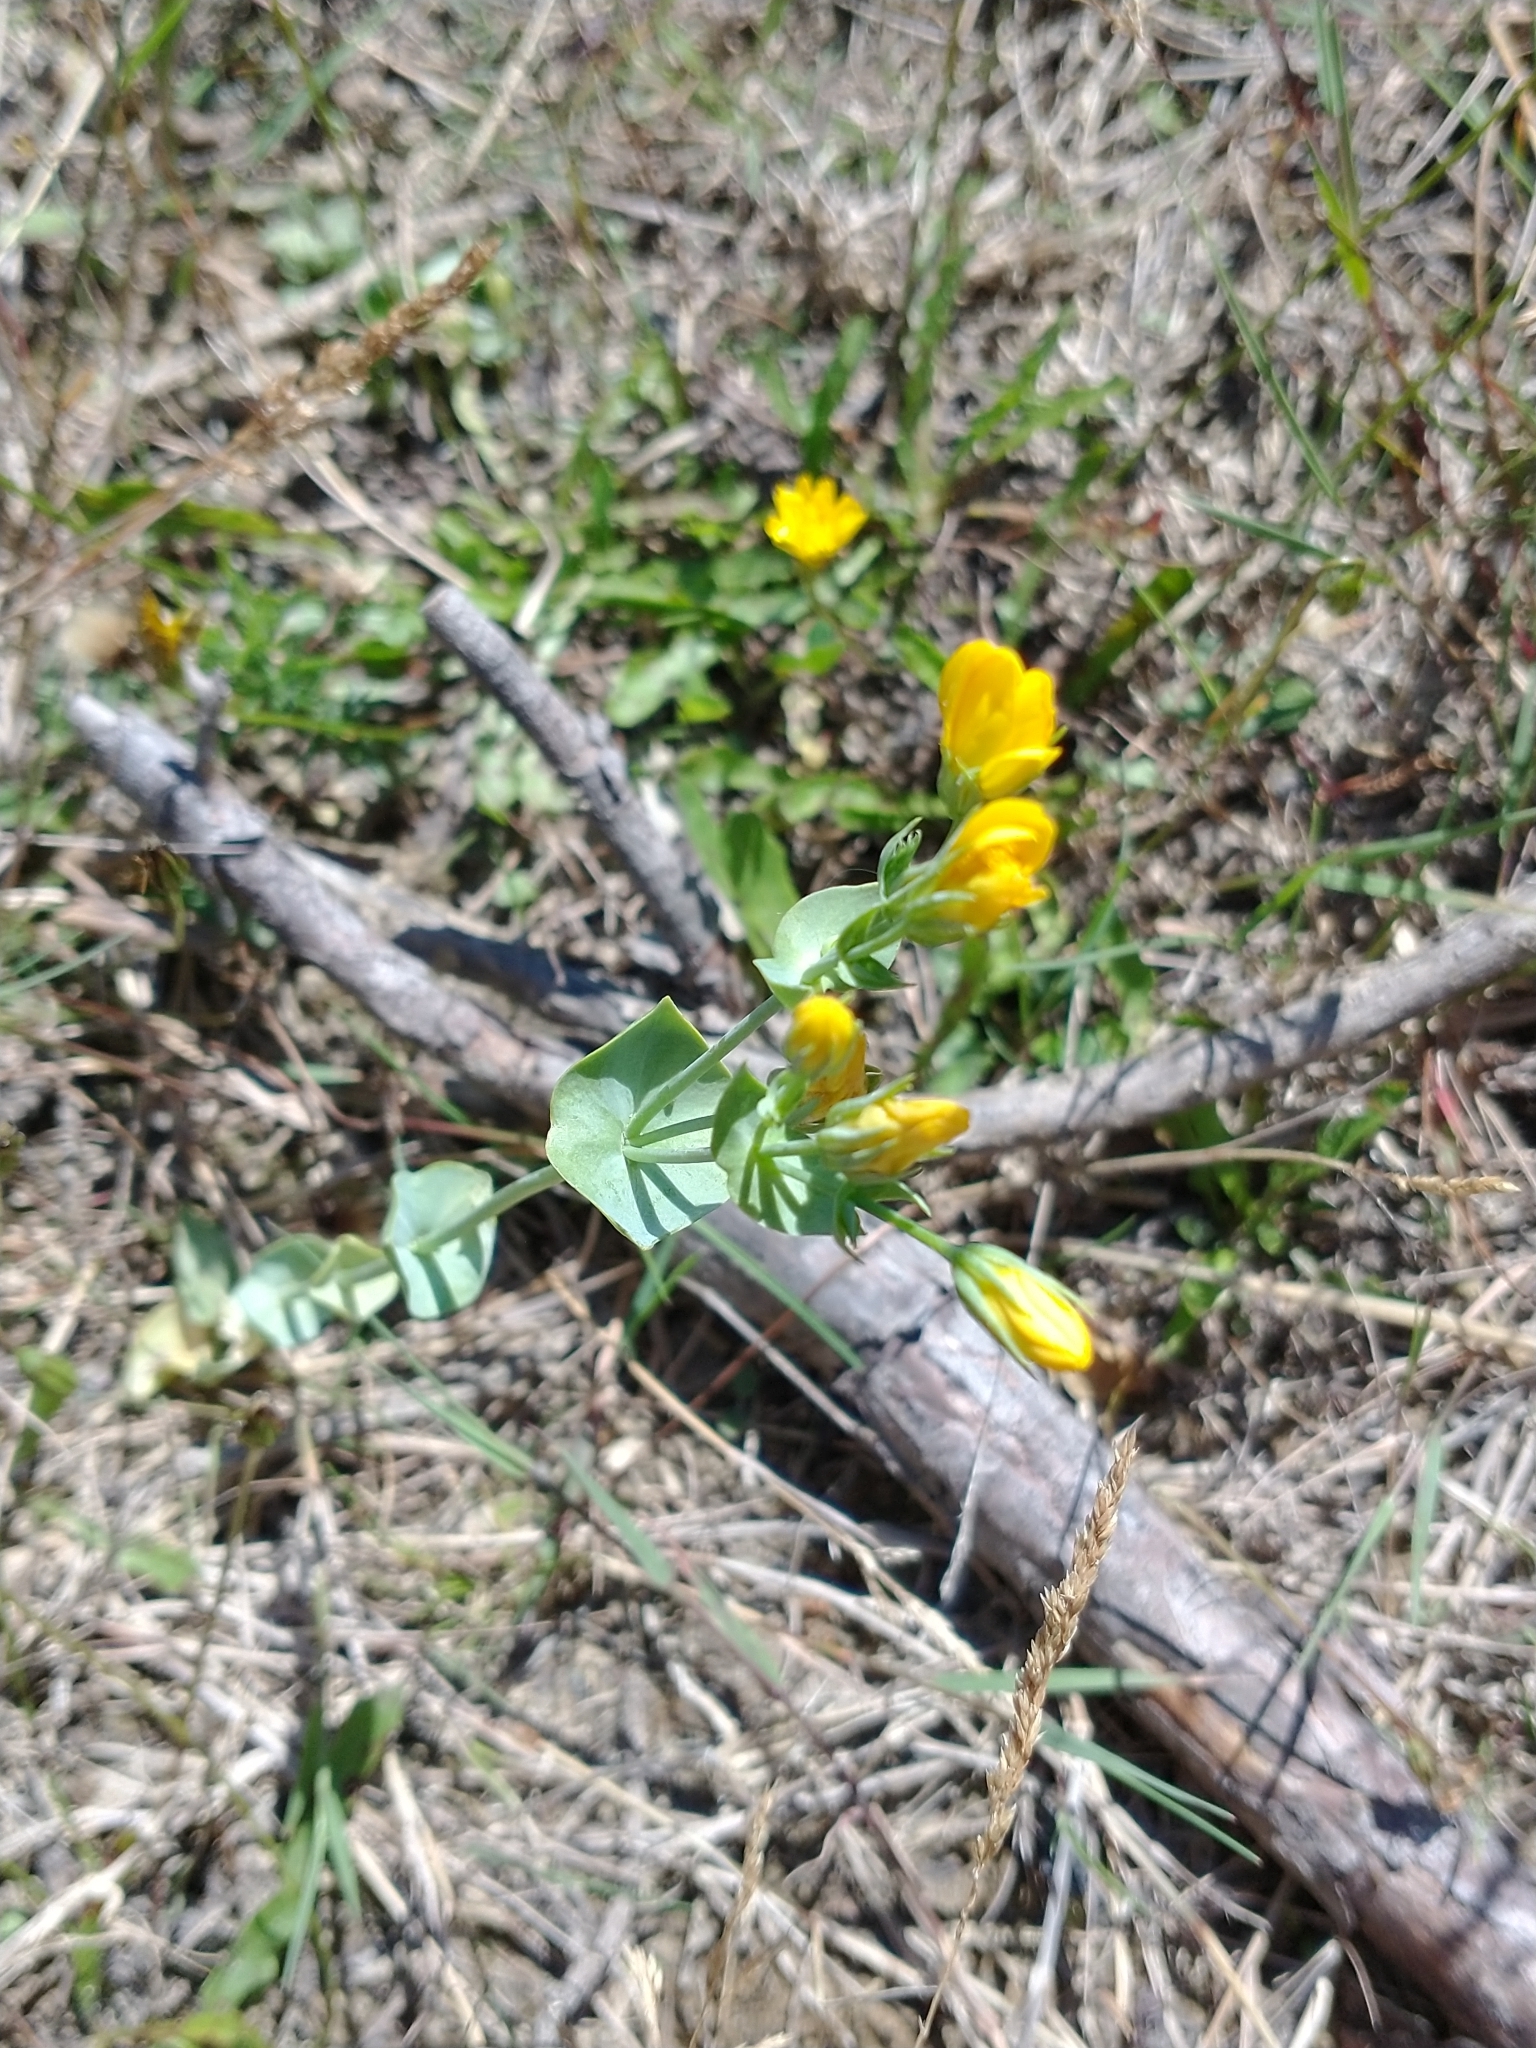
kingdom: Plantae
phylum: Tracheophyta
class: Magnoliopsida
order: Gentianales
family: Gentianaceae
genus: Blackstonia
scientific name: Blackstonia perfoliata
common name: Yellow-wort
